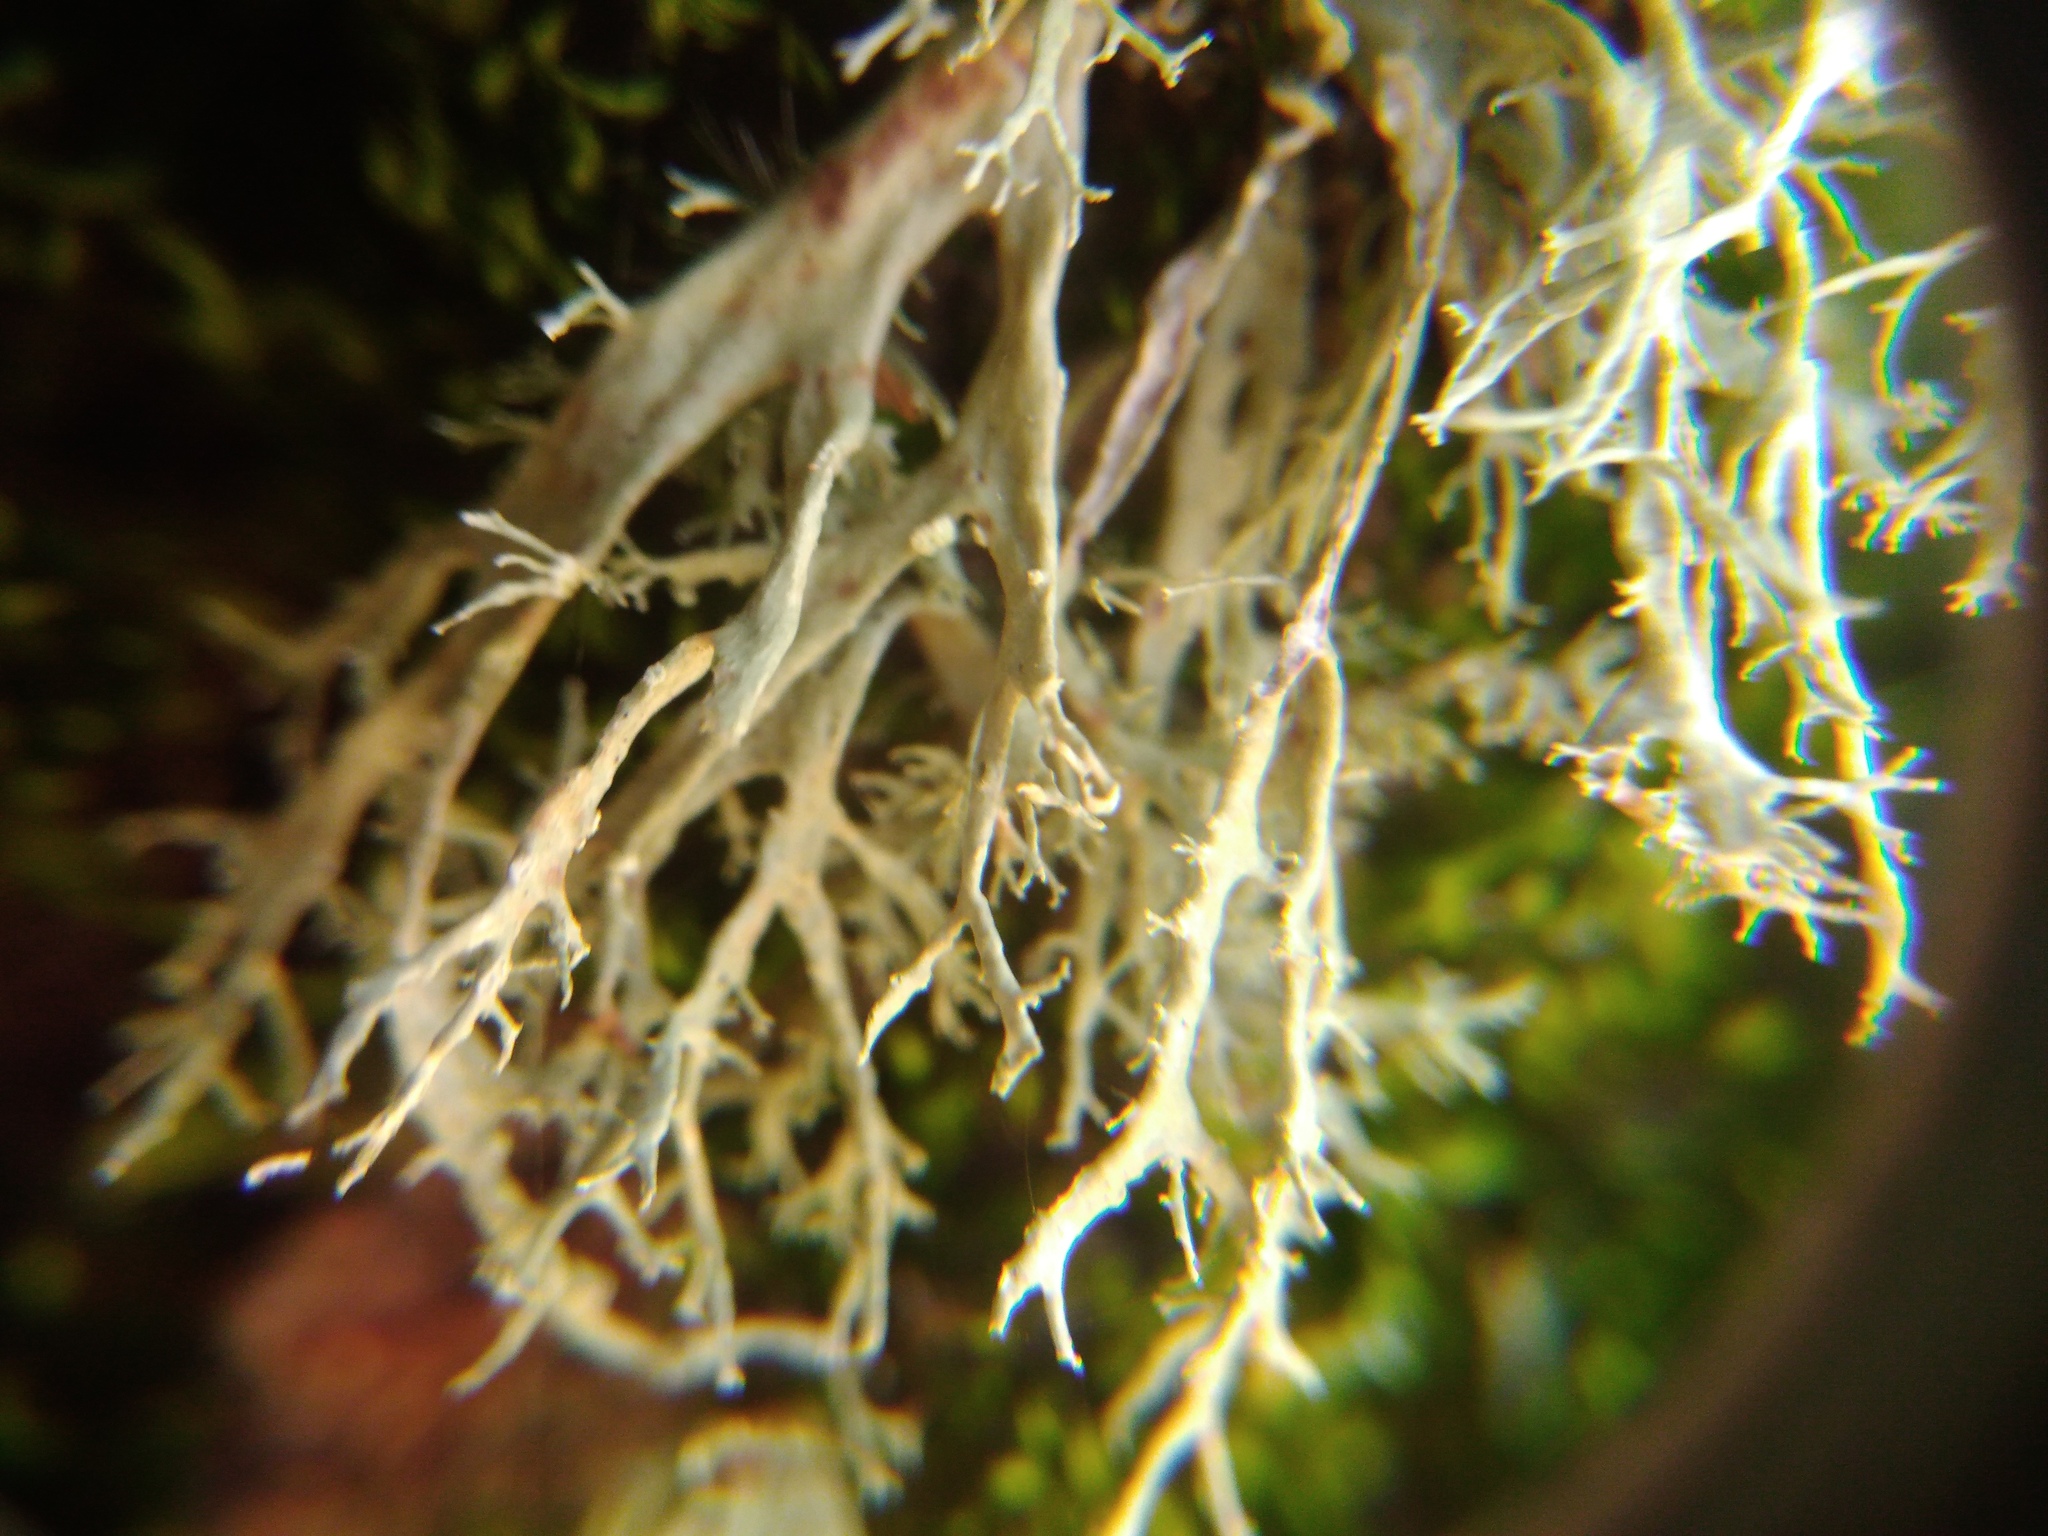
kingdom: Fungi
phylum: Ascomycota
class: Lecanoromycetes
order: Lecanorales
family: Ramalinaceae
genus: Ramalina
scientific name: Ramalina farinacea
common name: Farinose cartilage lichen
